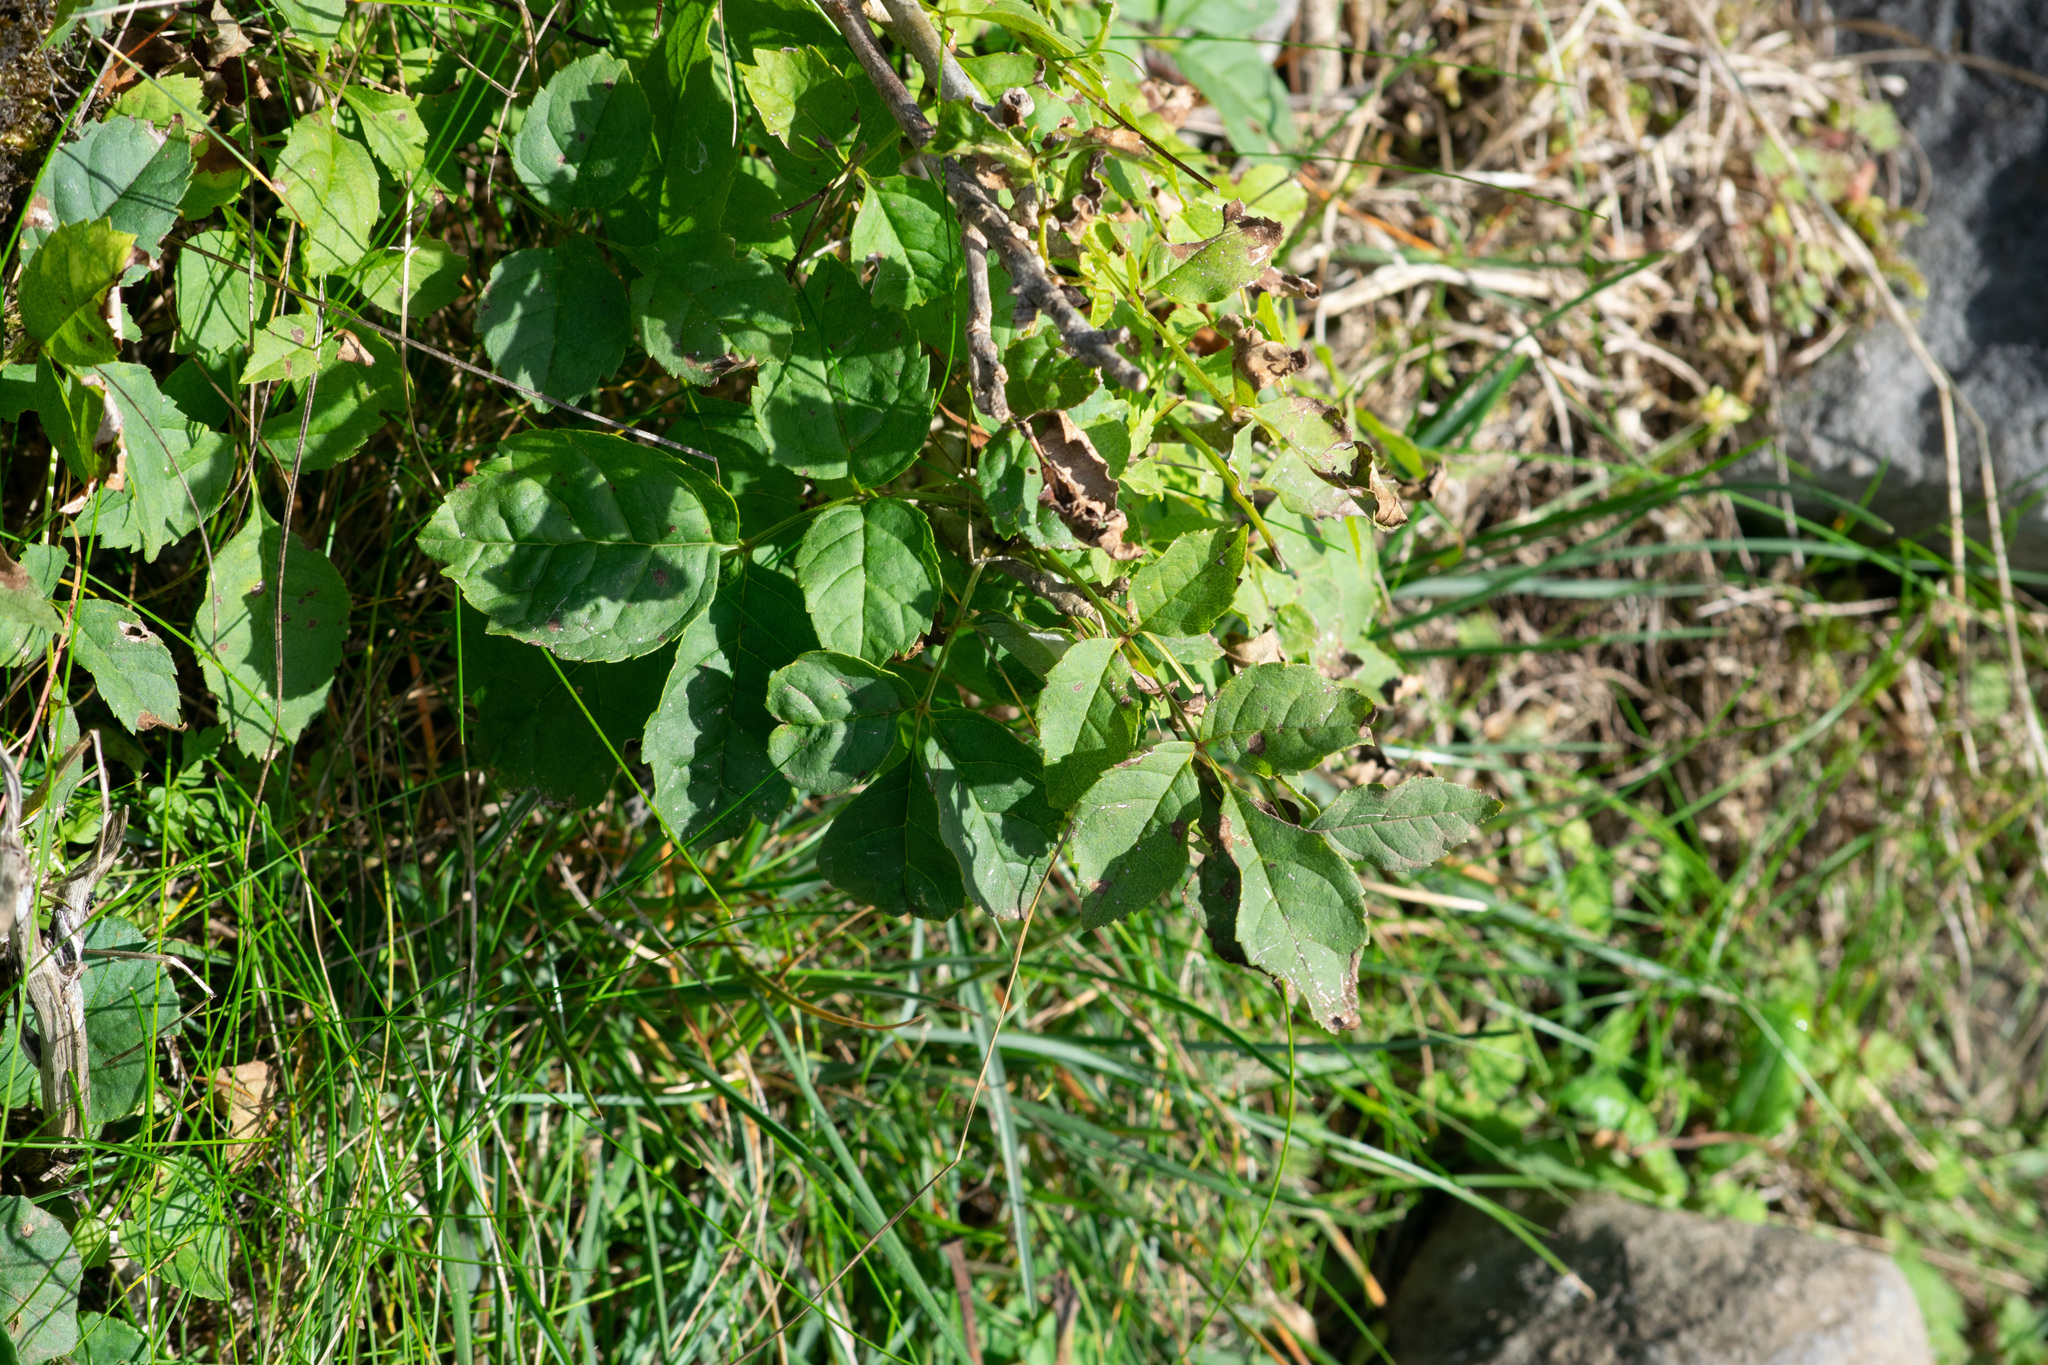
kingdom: Plantae
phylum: Tracheophyta
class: Magnoliopsida
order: Lamiales
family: Oleaceae
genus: Fraxinus
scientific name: Fraxinus excelsior
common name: European ash
